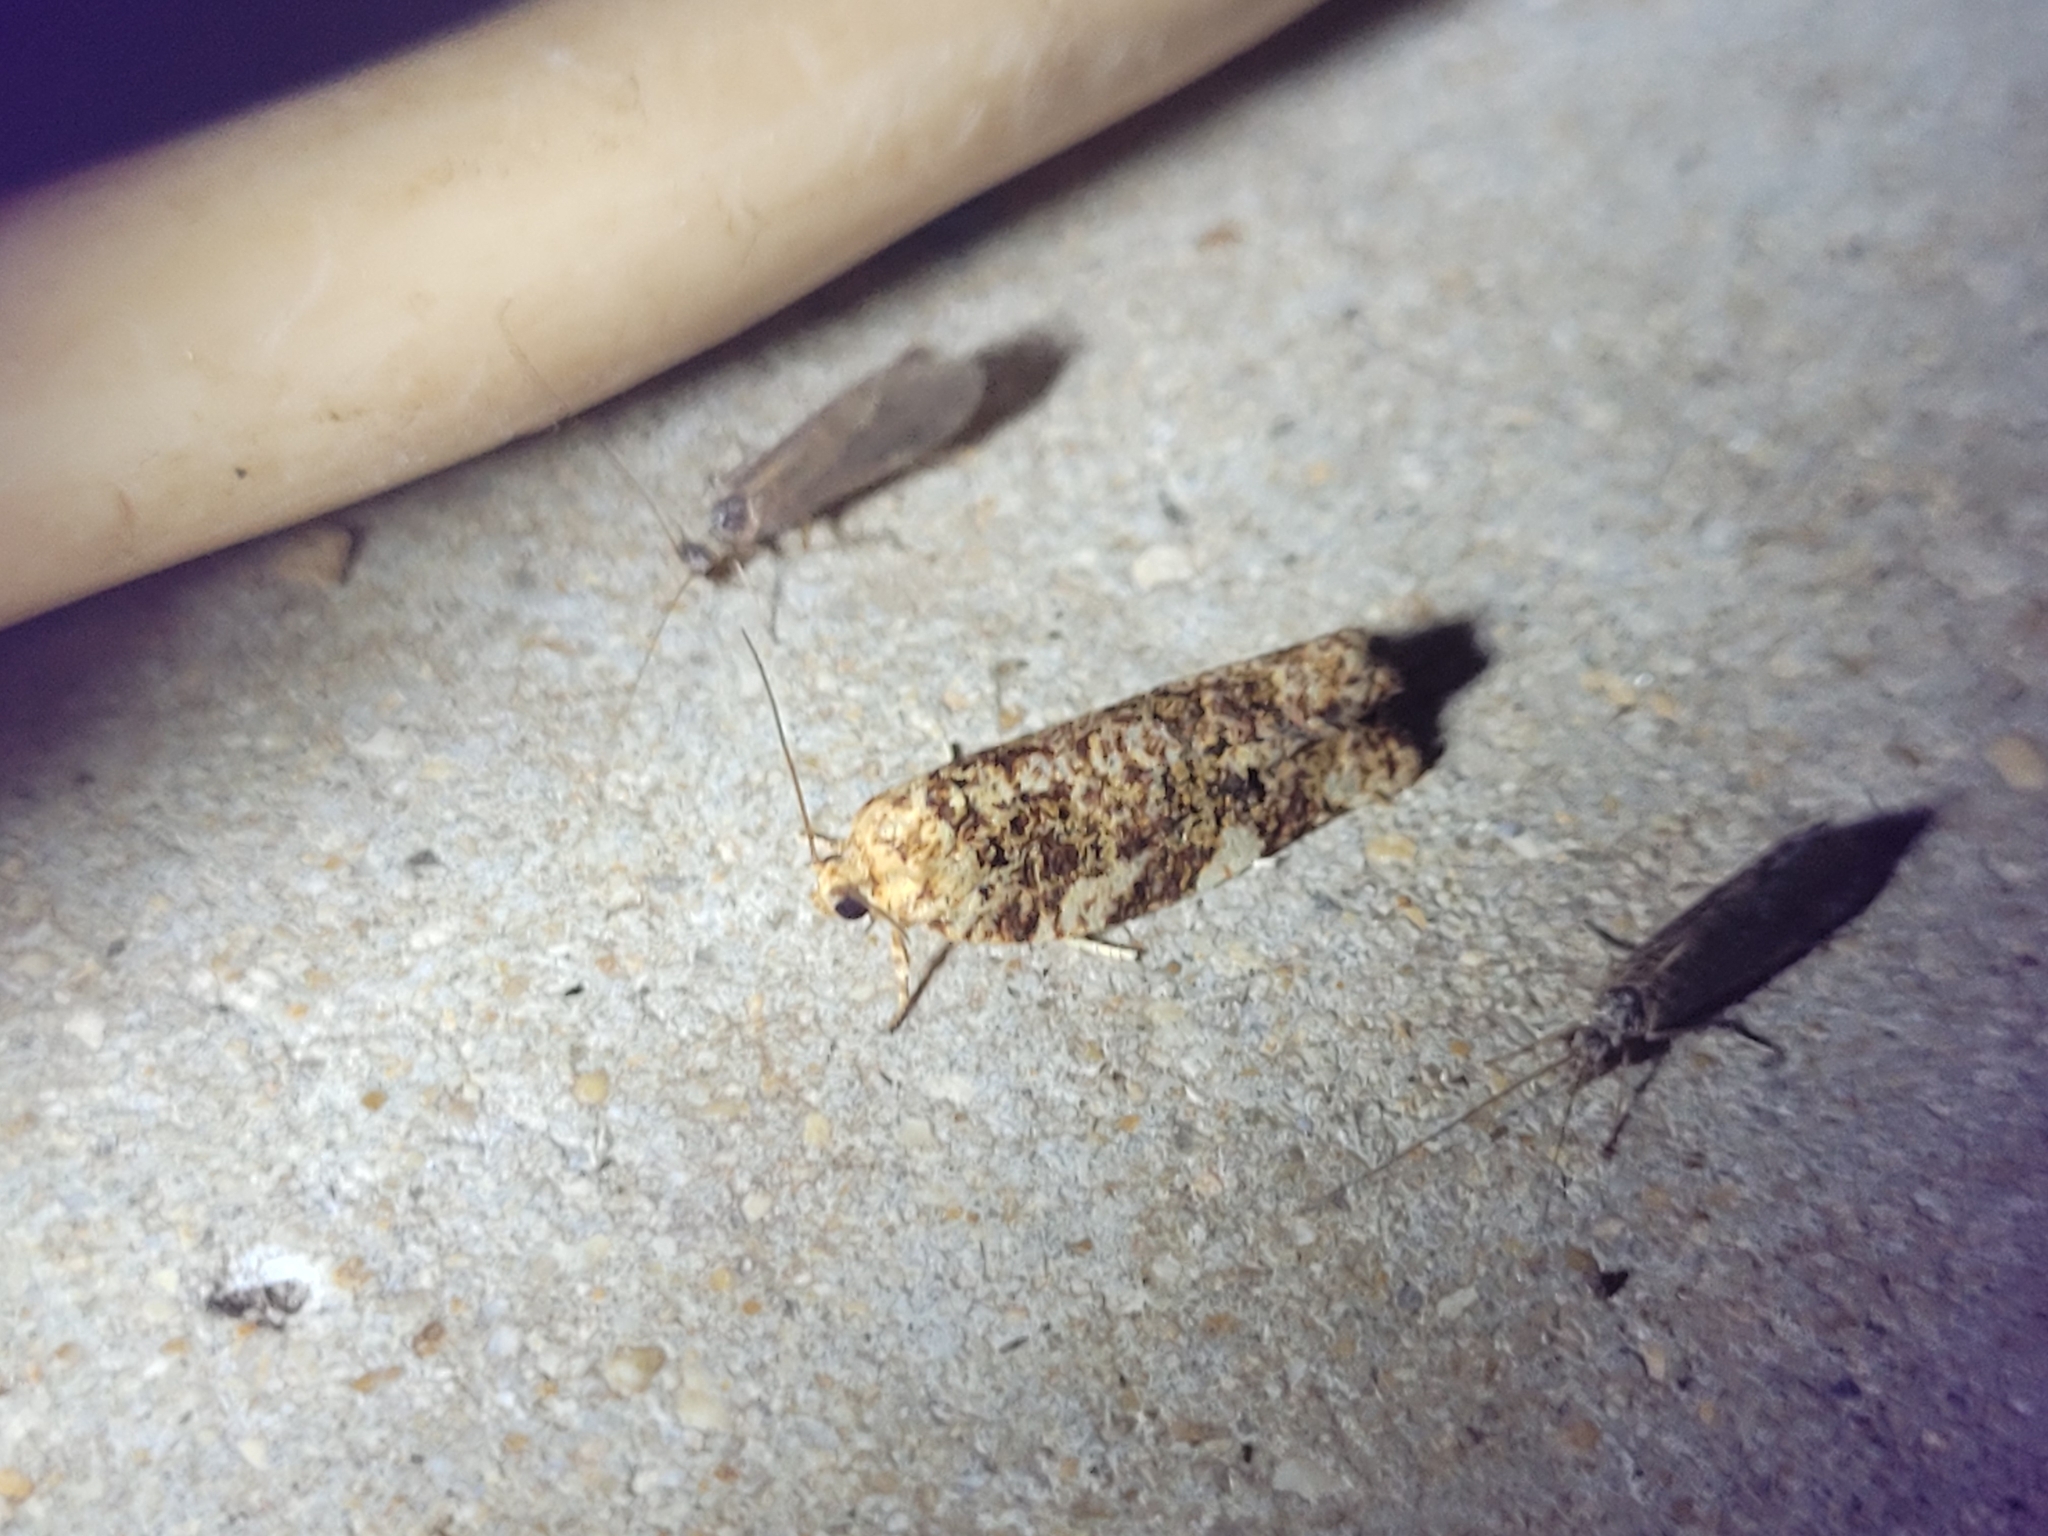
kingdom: Animalia
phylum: Arthropoda
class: Insecta
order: Lepidoptera
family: Tortricidae
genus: Archips
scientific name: Archips argyrospila
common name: Fruit-tree leafroller moth
